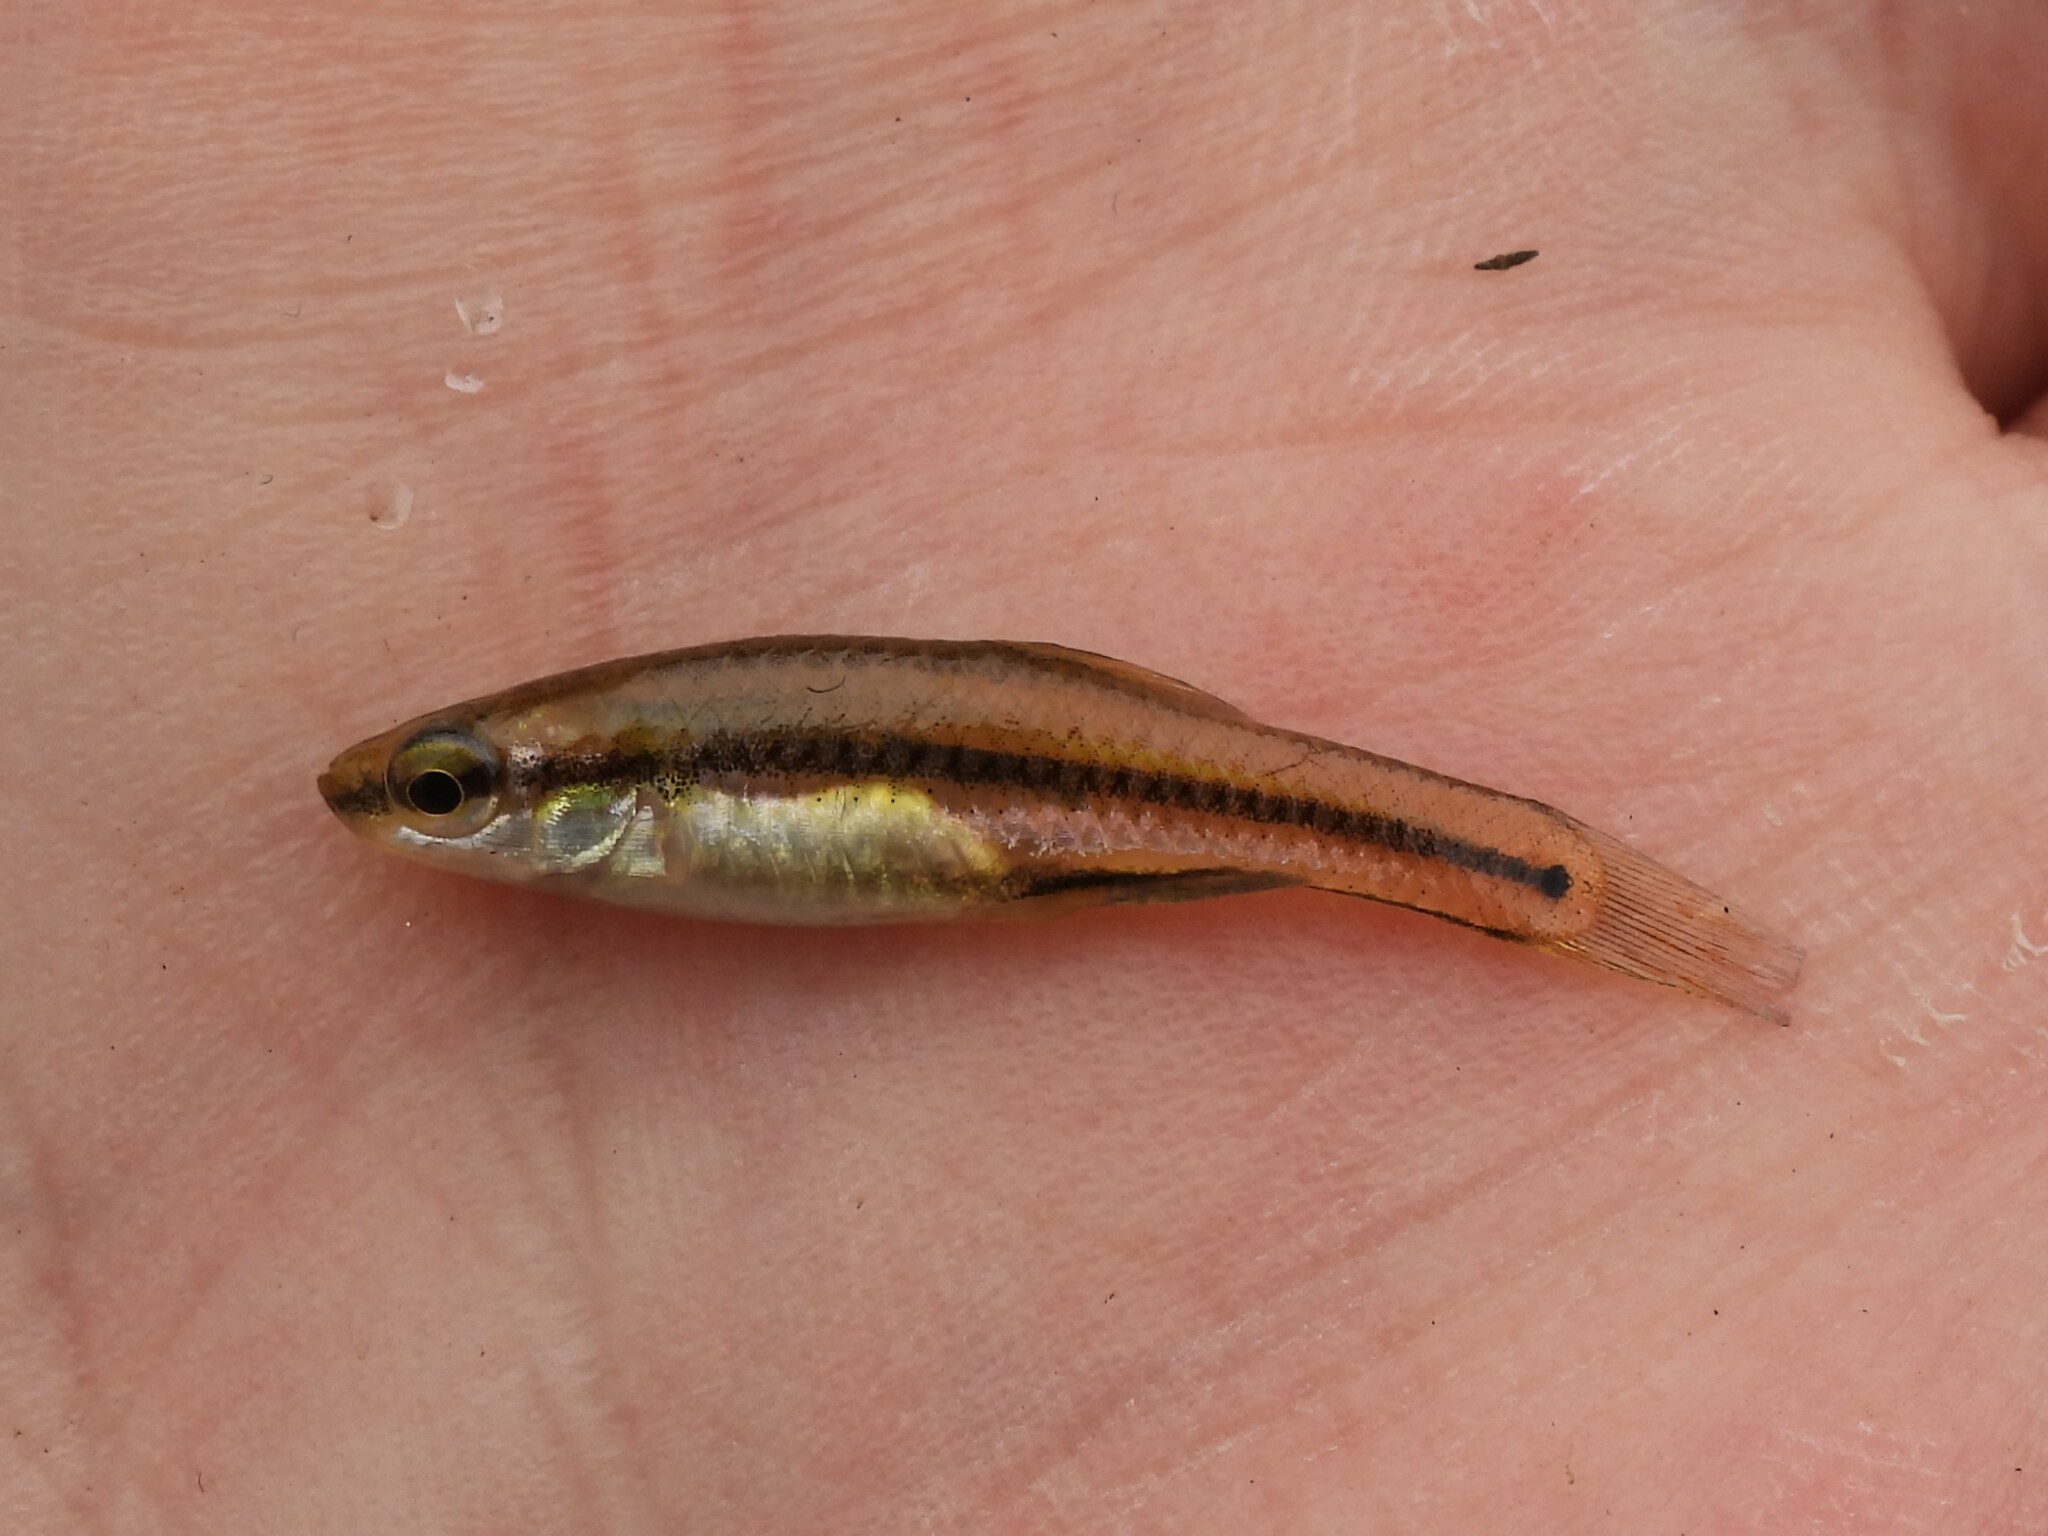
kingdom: Animalia
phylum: Chordata
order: Cyprinodontiformes
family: Fundulidae
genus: Lucania
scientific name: Lucania goodei
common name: Bluefin killifish
